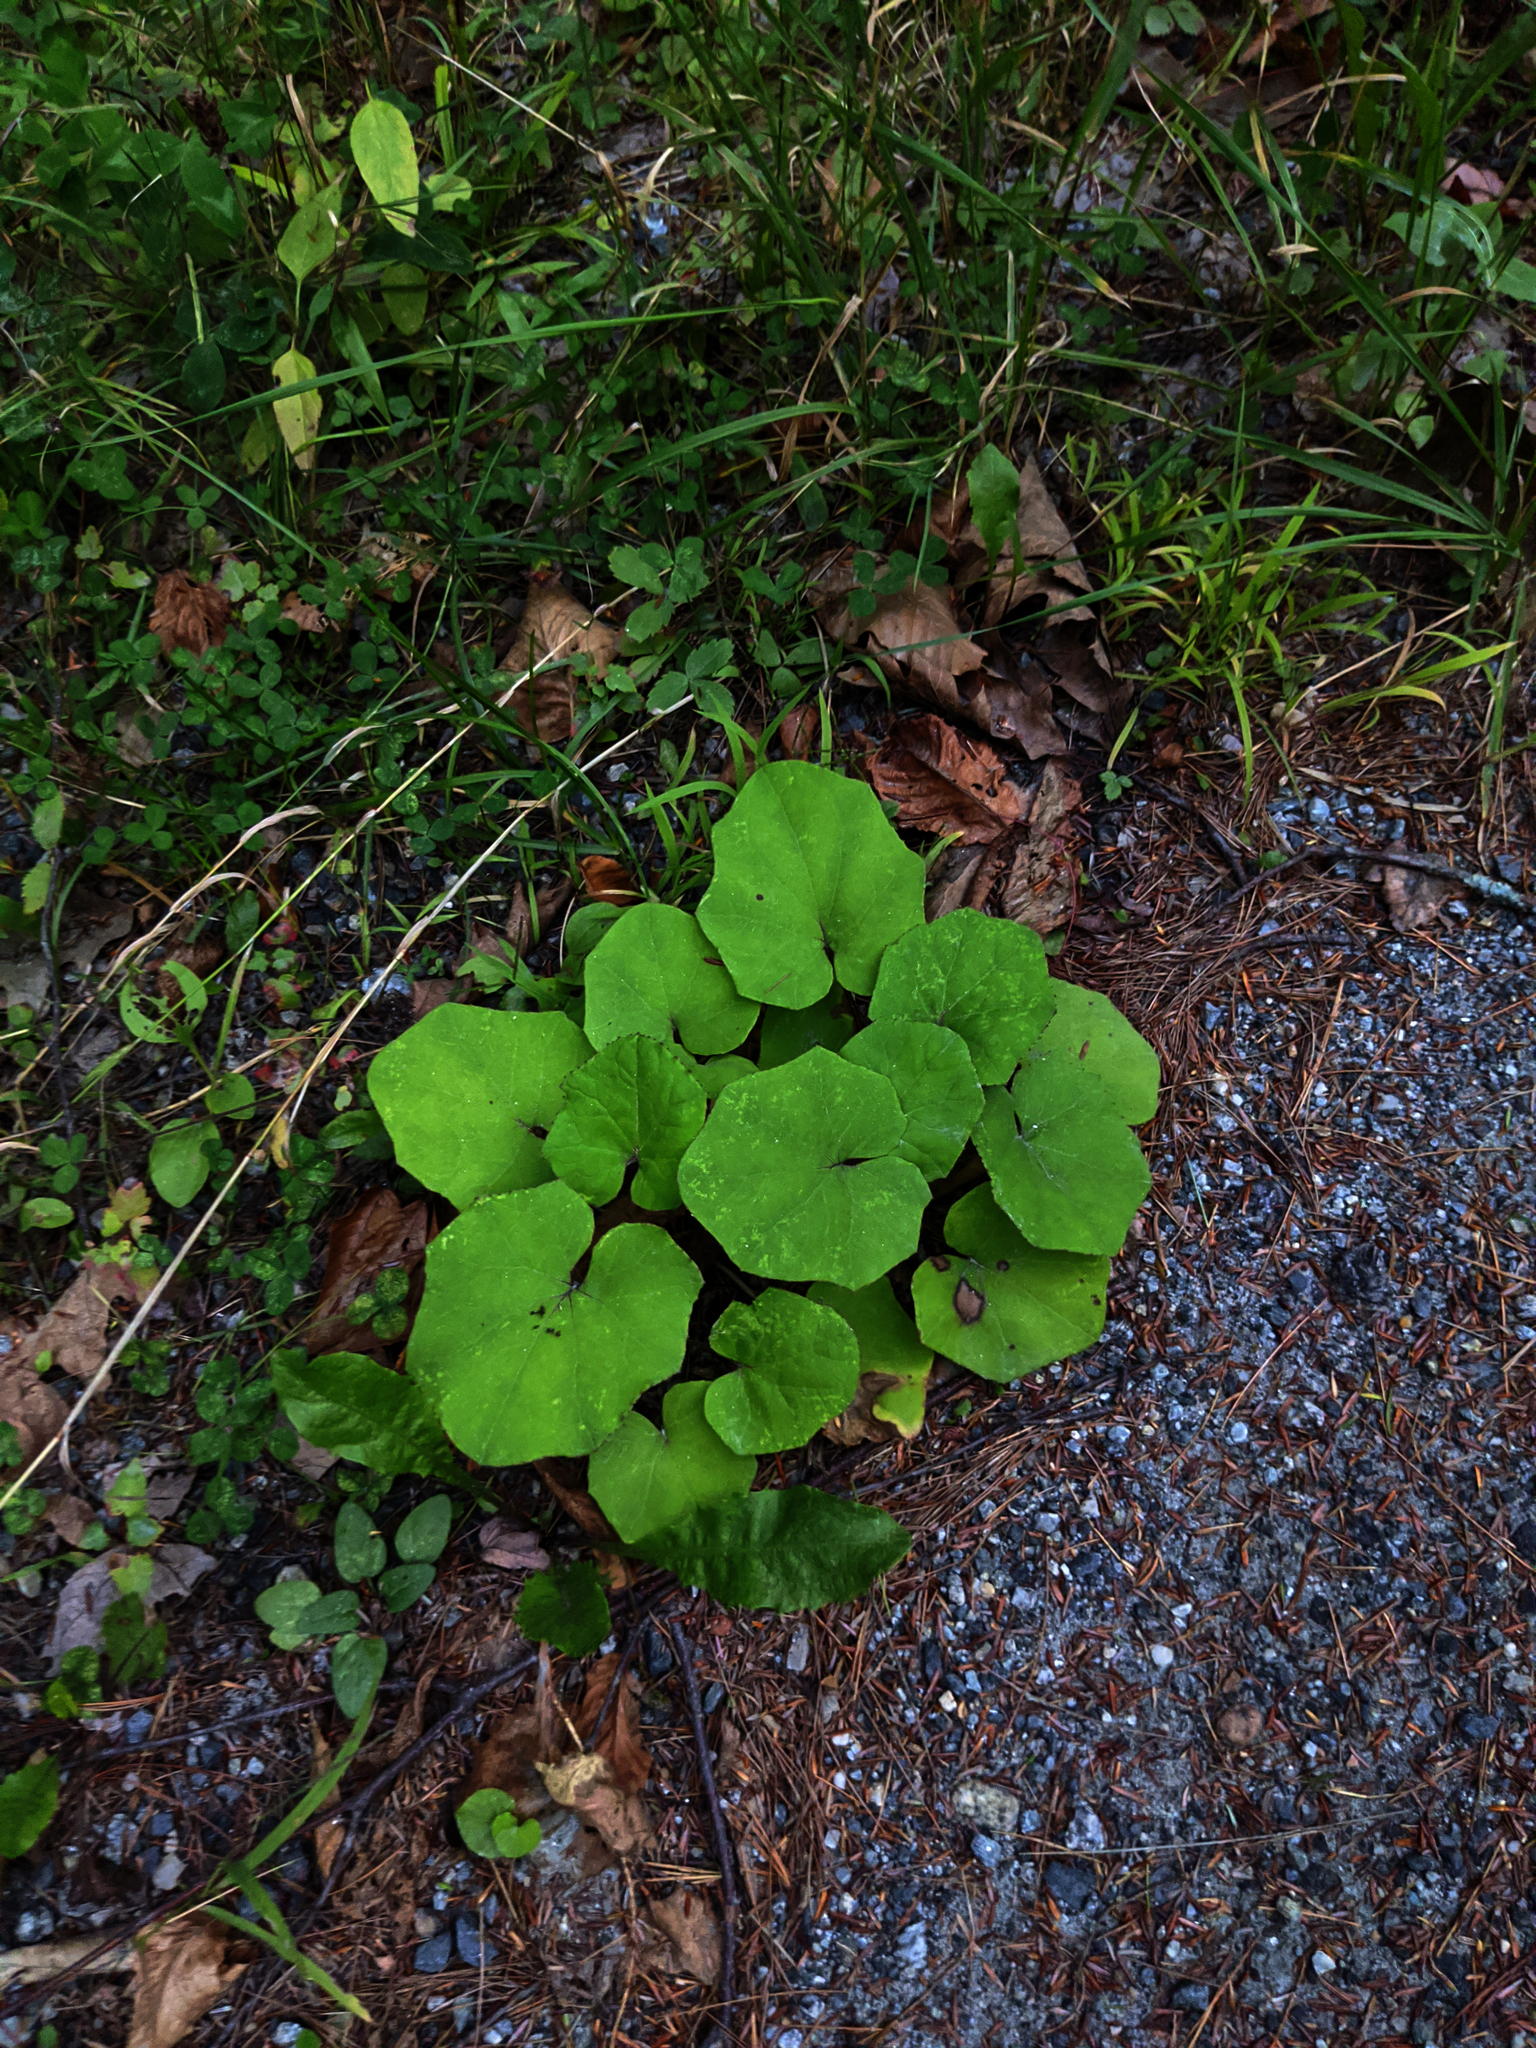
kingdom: Plantae
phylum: Tracheophyta
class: Magnoliopsida
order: Asterales
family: Asteraceae
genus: Tussilago
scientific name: Tussilago farfara
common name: Coltsfoot
